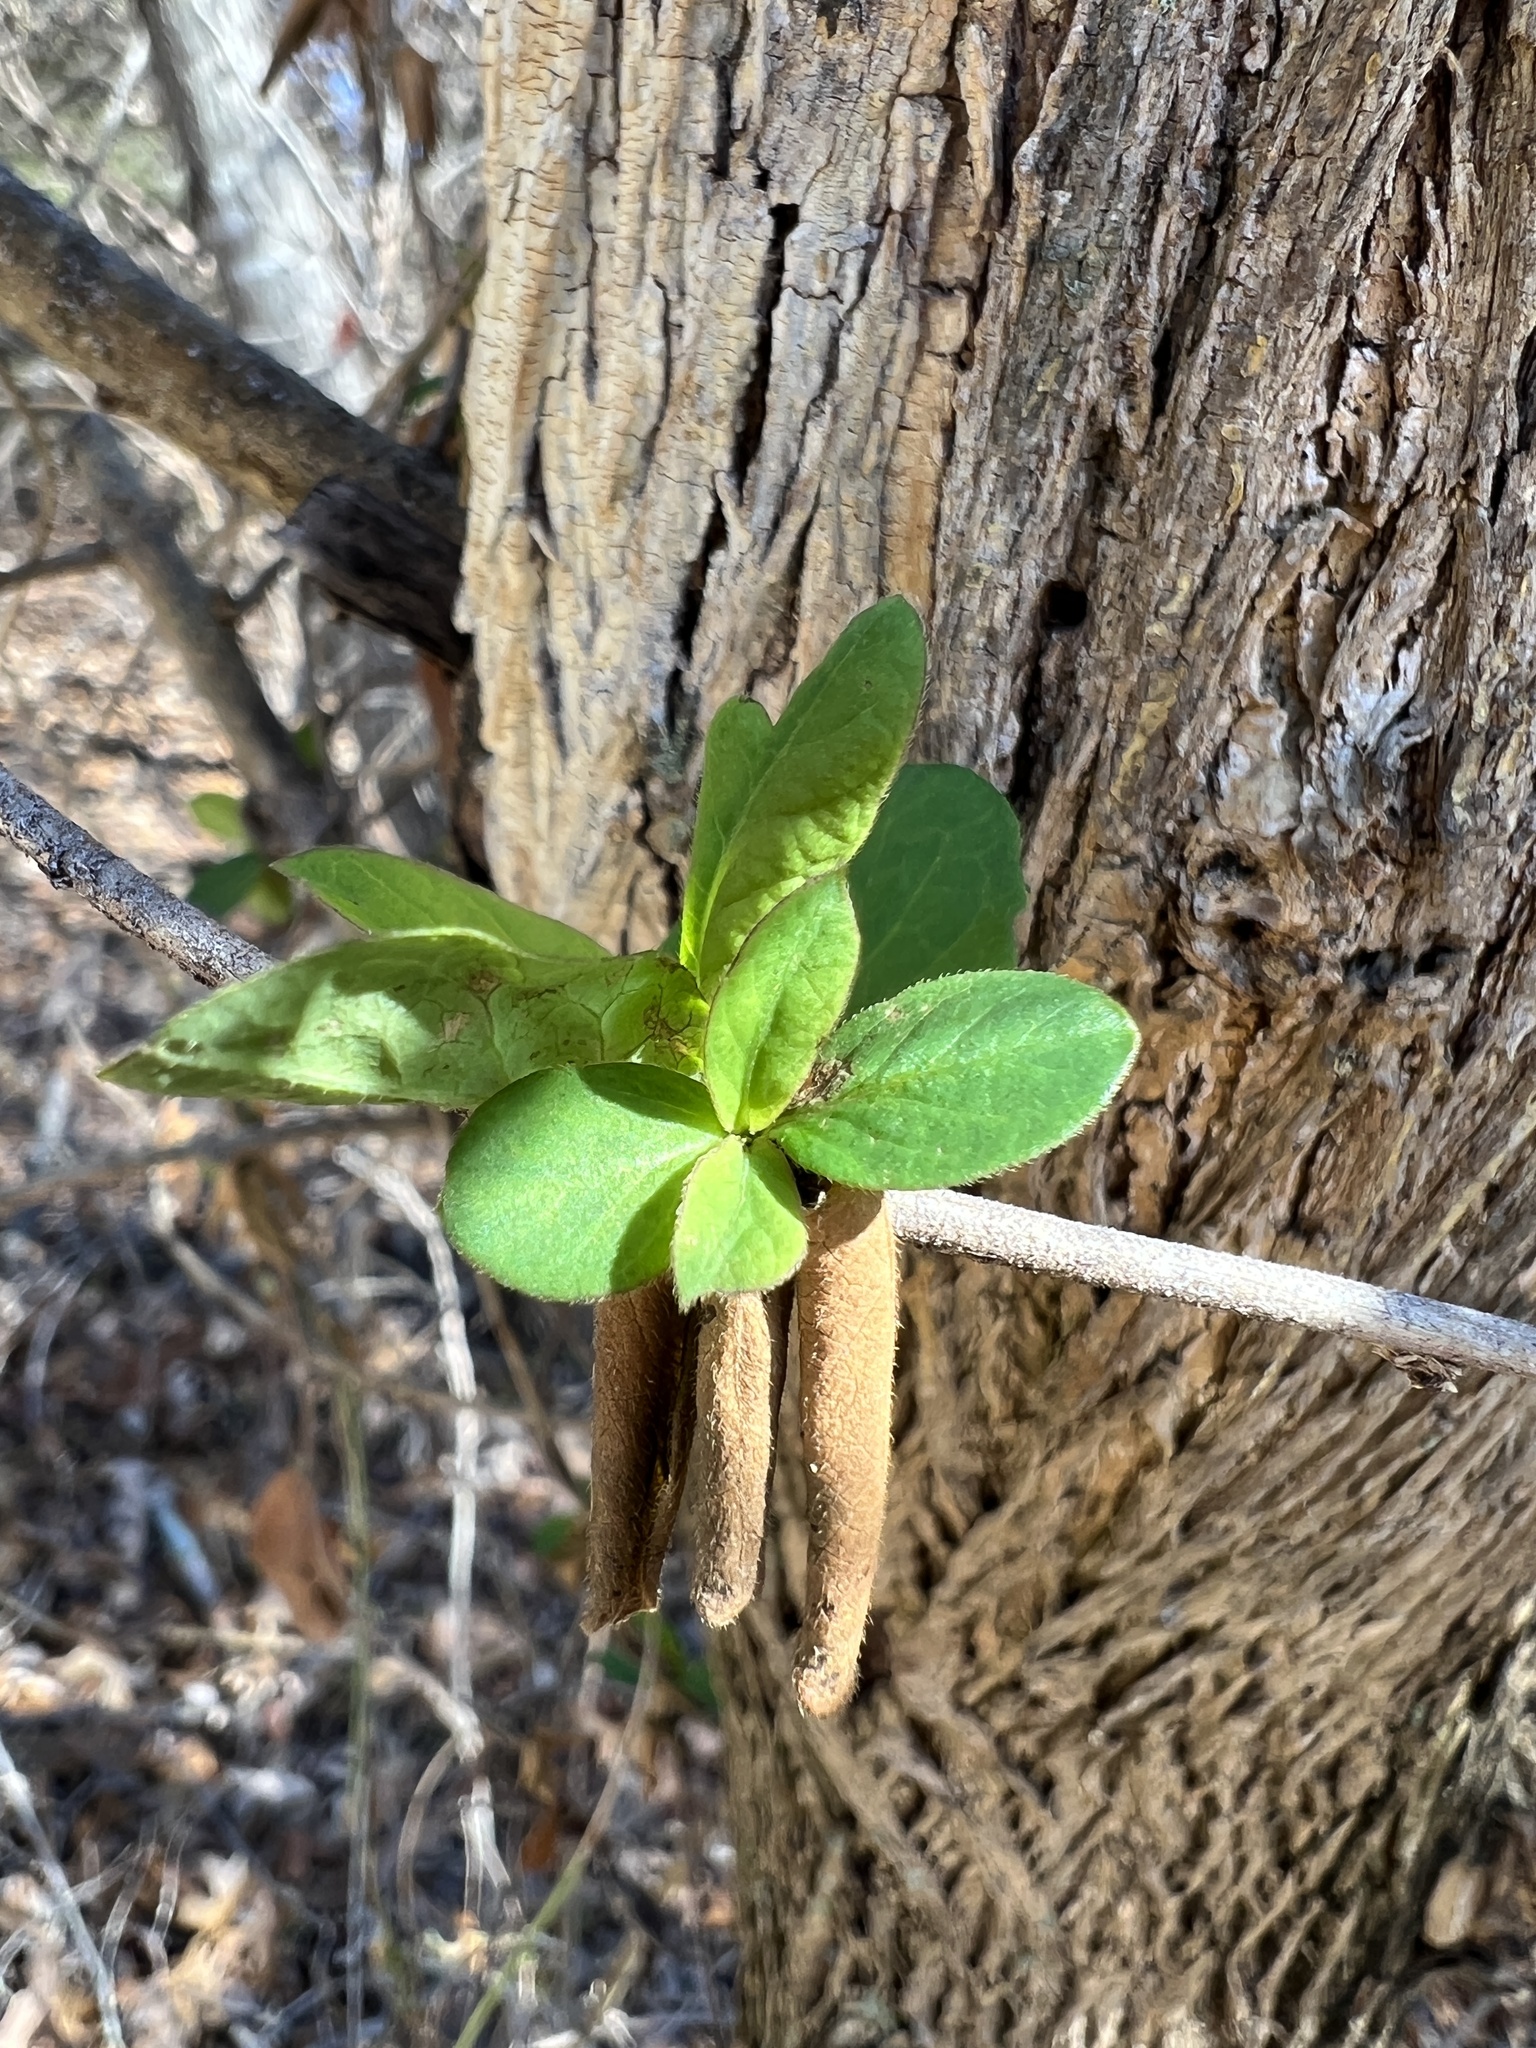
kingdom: Plantae
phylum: Tracheophyta
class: Magnoliopsida
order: Dipsacales
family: Caprifoliaceae
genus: Lonicera
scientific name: Lonicera japonica
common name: Japanese honeysuckle
